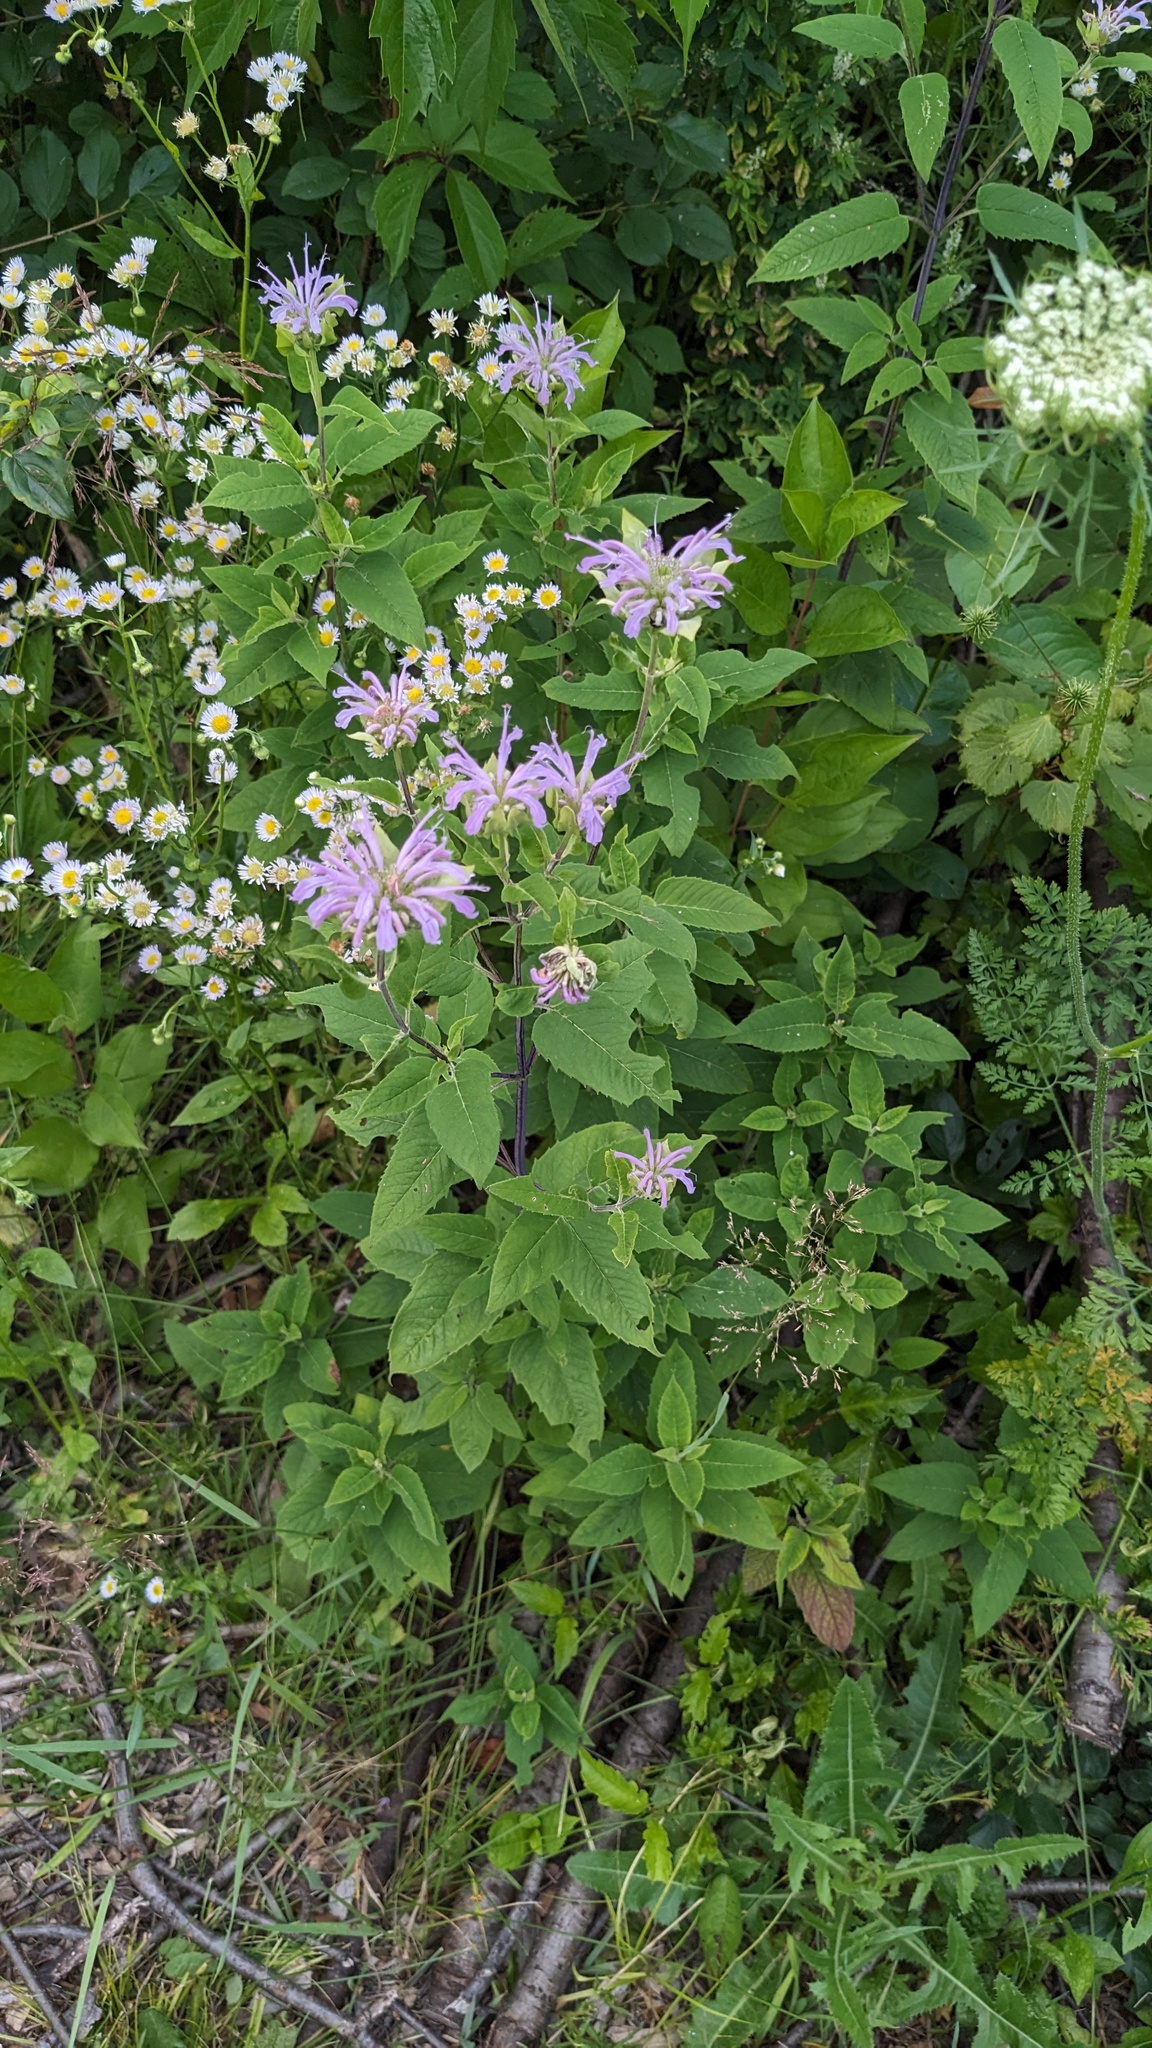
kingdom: Plantae
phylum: Tracheophyta
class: Magnoliopsida
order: Lamiales
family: Lamiaceae
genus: Monarda
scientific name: Monarda fistulosa
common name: Purple beebalm
